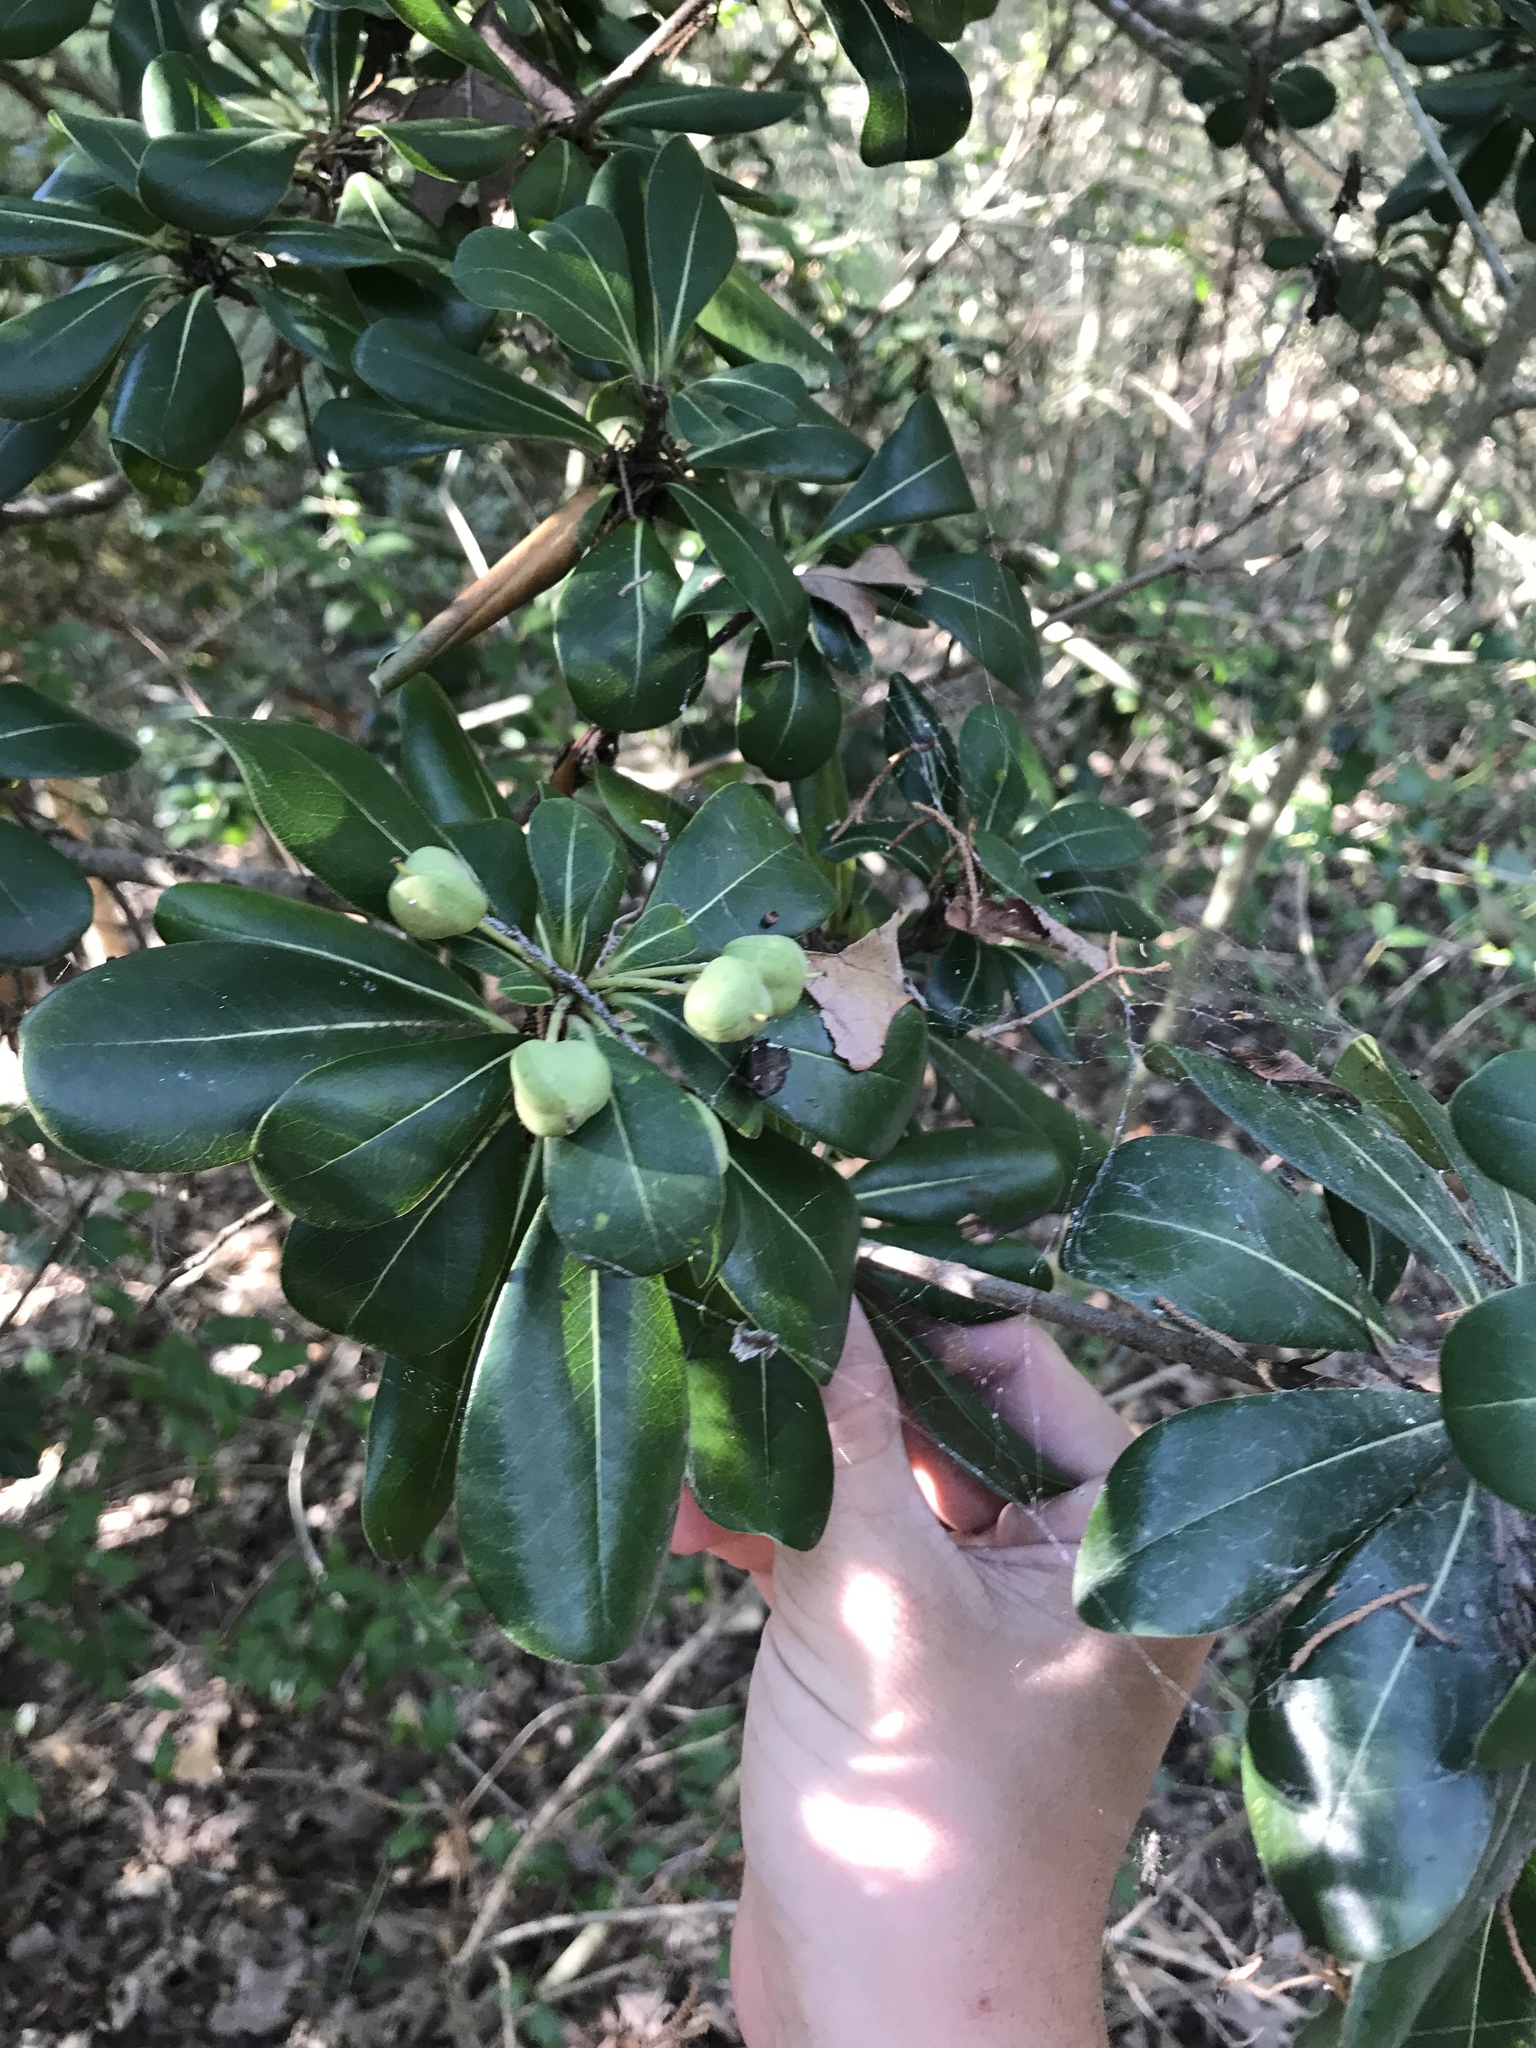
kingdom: Plantae
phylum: Tracheophyta
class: Magnoliopsida
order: Apiales
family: Pittosporaceae
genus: Pittosporum
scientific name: Pittosporum tobira
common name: Japanese cheesewood
